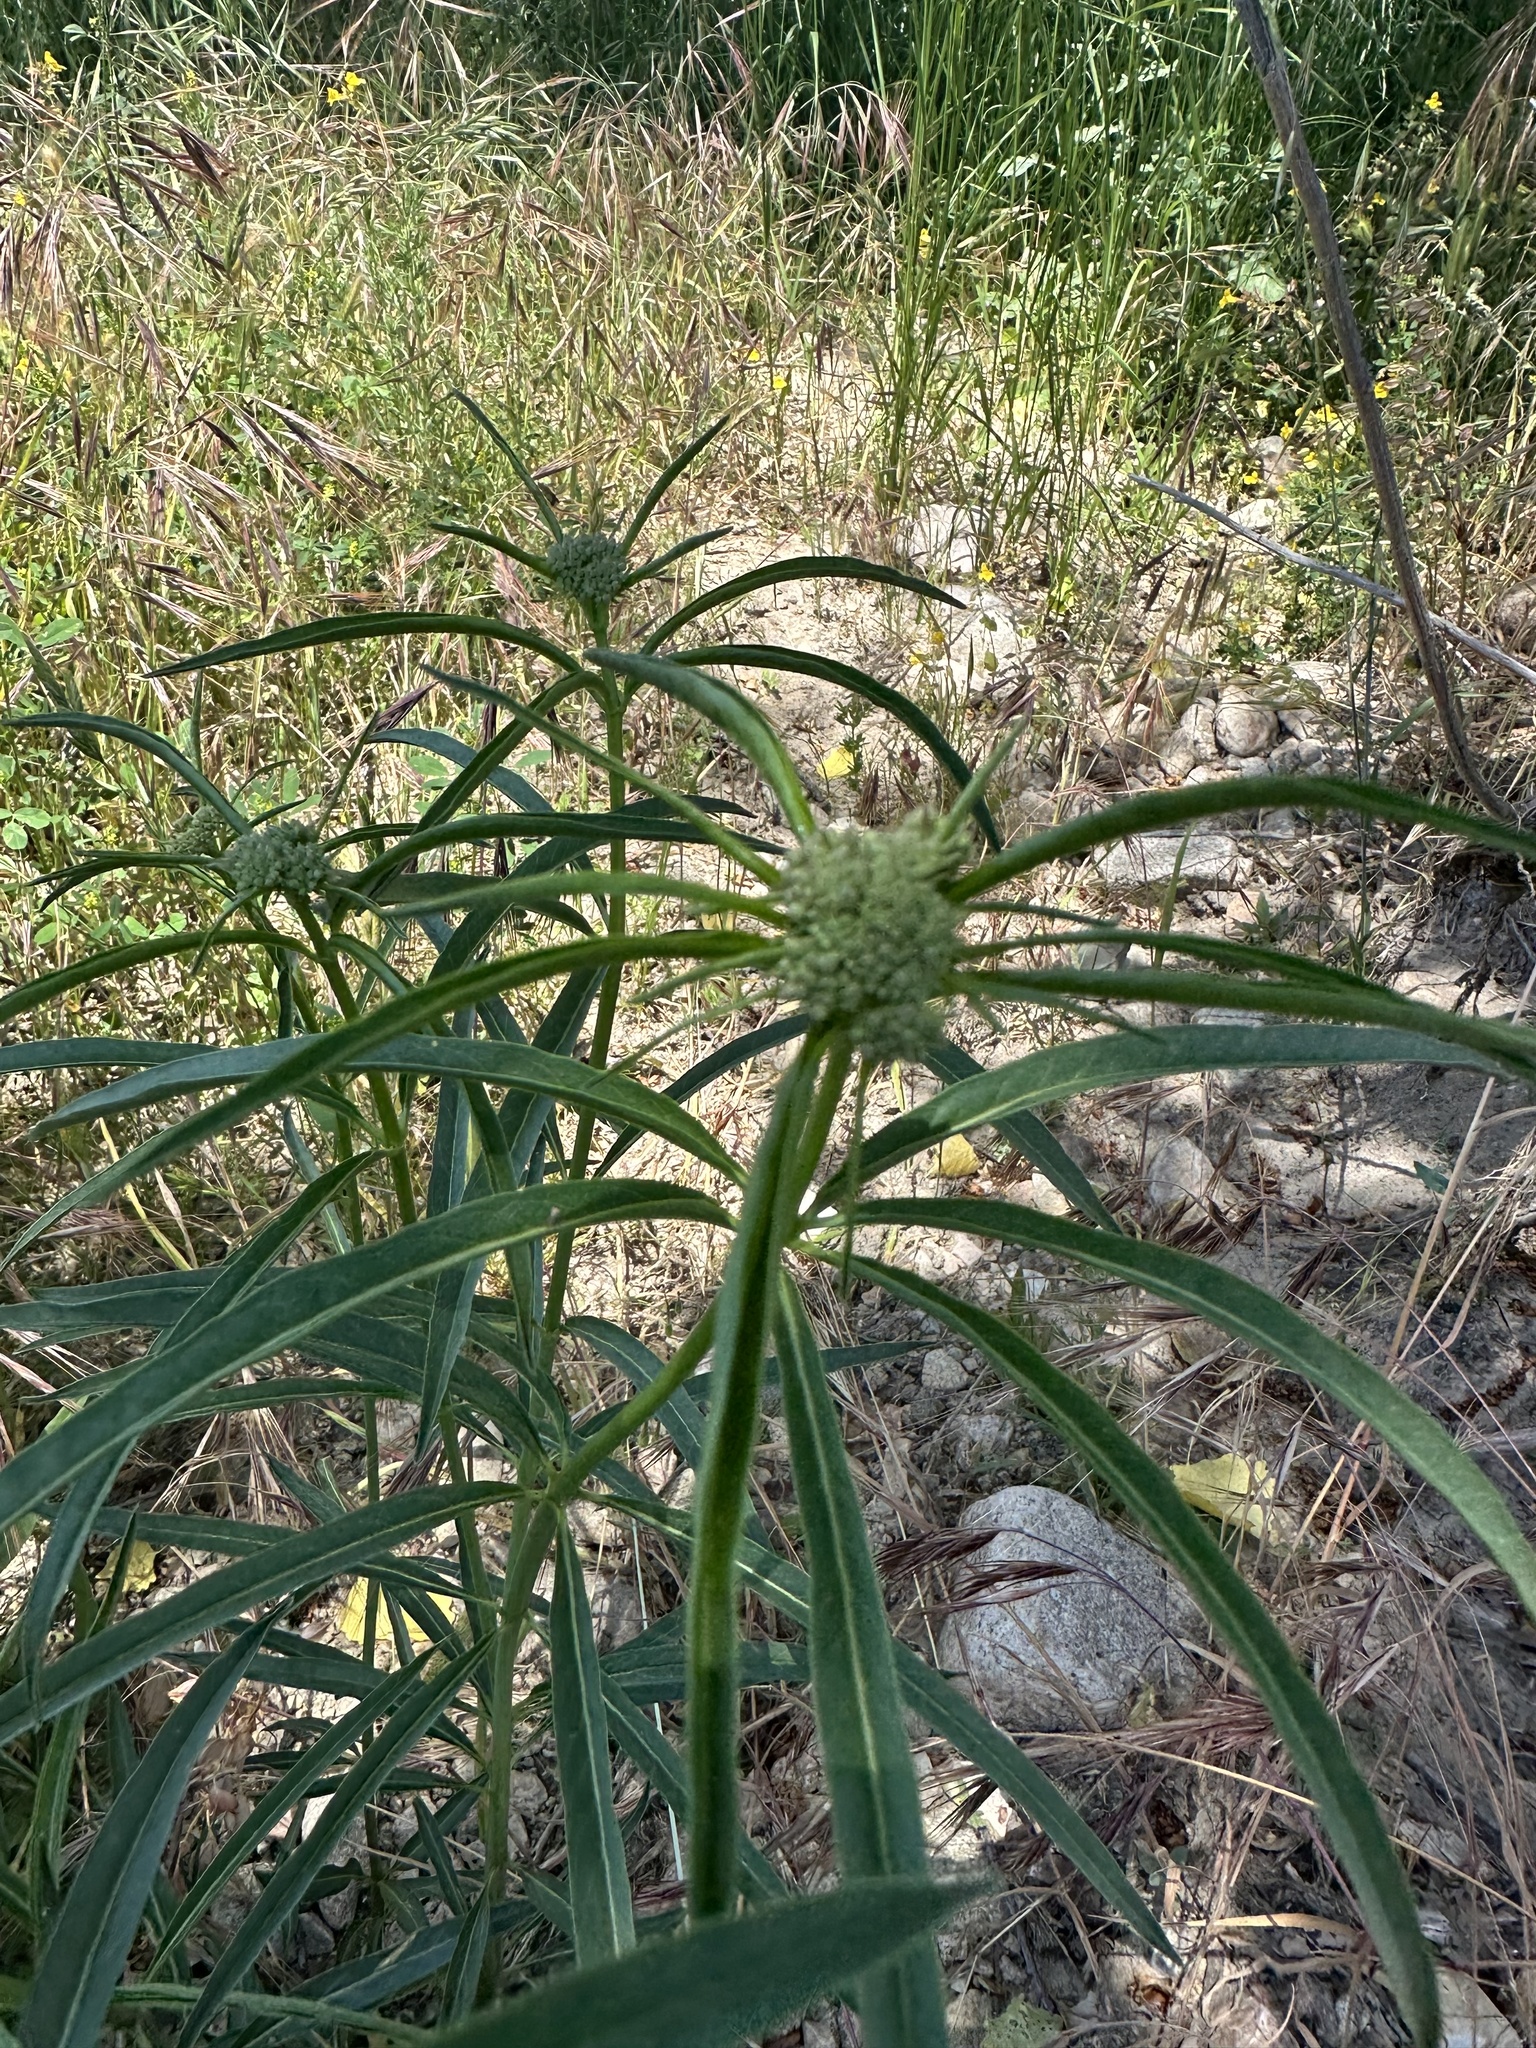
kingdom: Plantae
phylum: Tracheophyta
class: Magnoliopsida
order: Gentianales
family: Apocynaceae
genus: Asclepias
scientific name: Asclepias fascicularis
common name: Mexican milkweed
